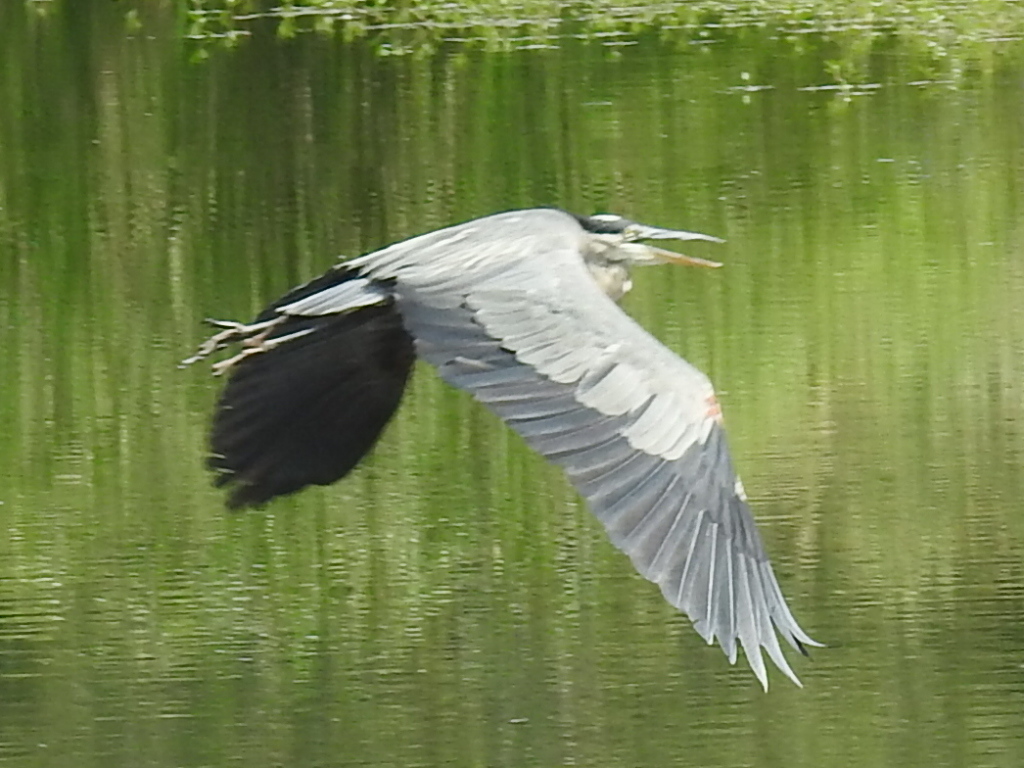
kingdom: Animalia
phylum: Chordata
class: Aves
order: Pelecaniformes
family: Ardeidae
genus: Ardea
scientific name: Ardea herodias
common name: Great blue heron
